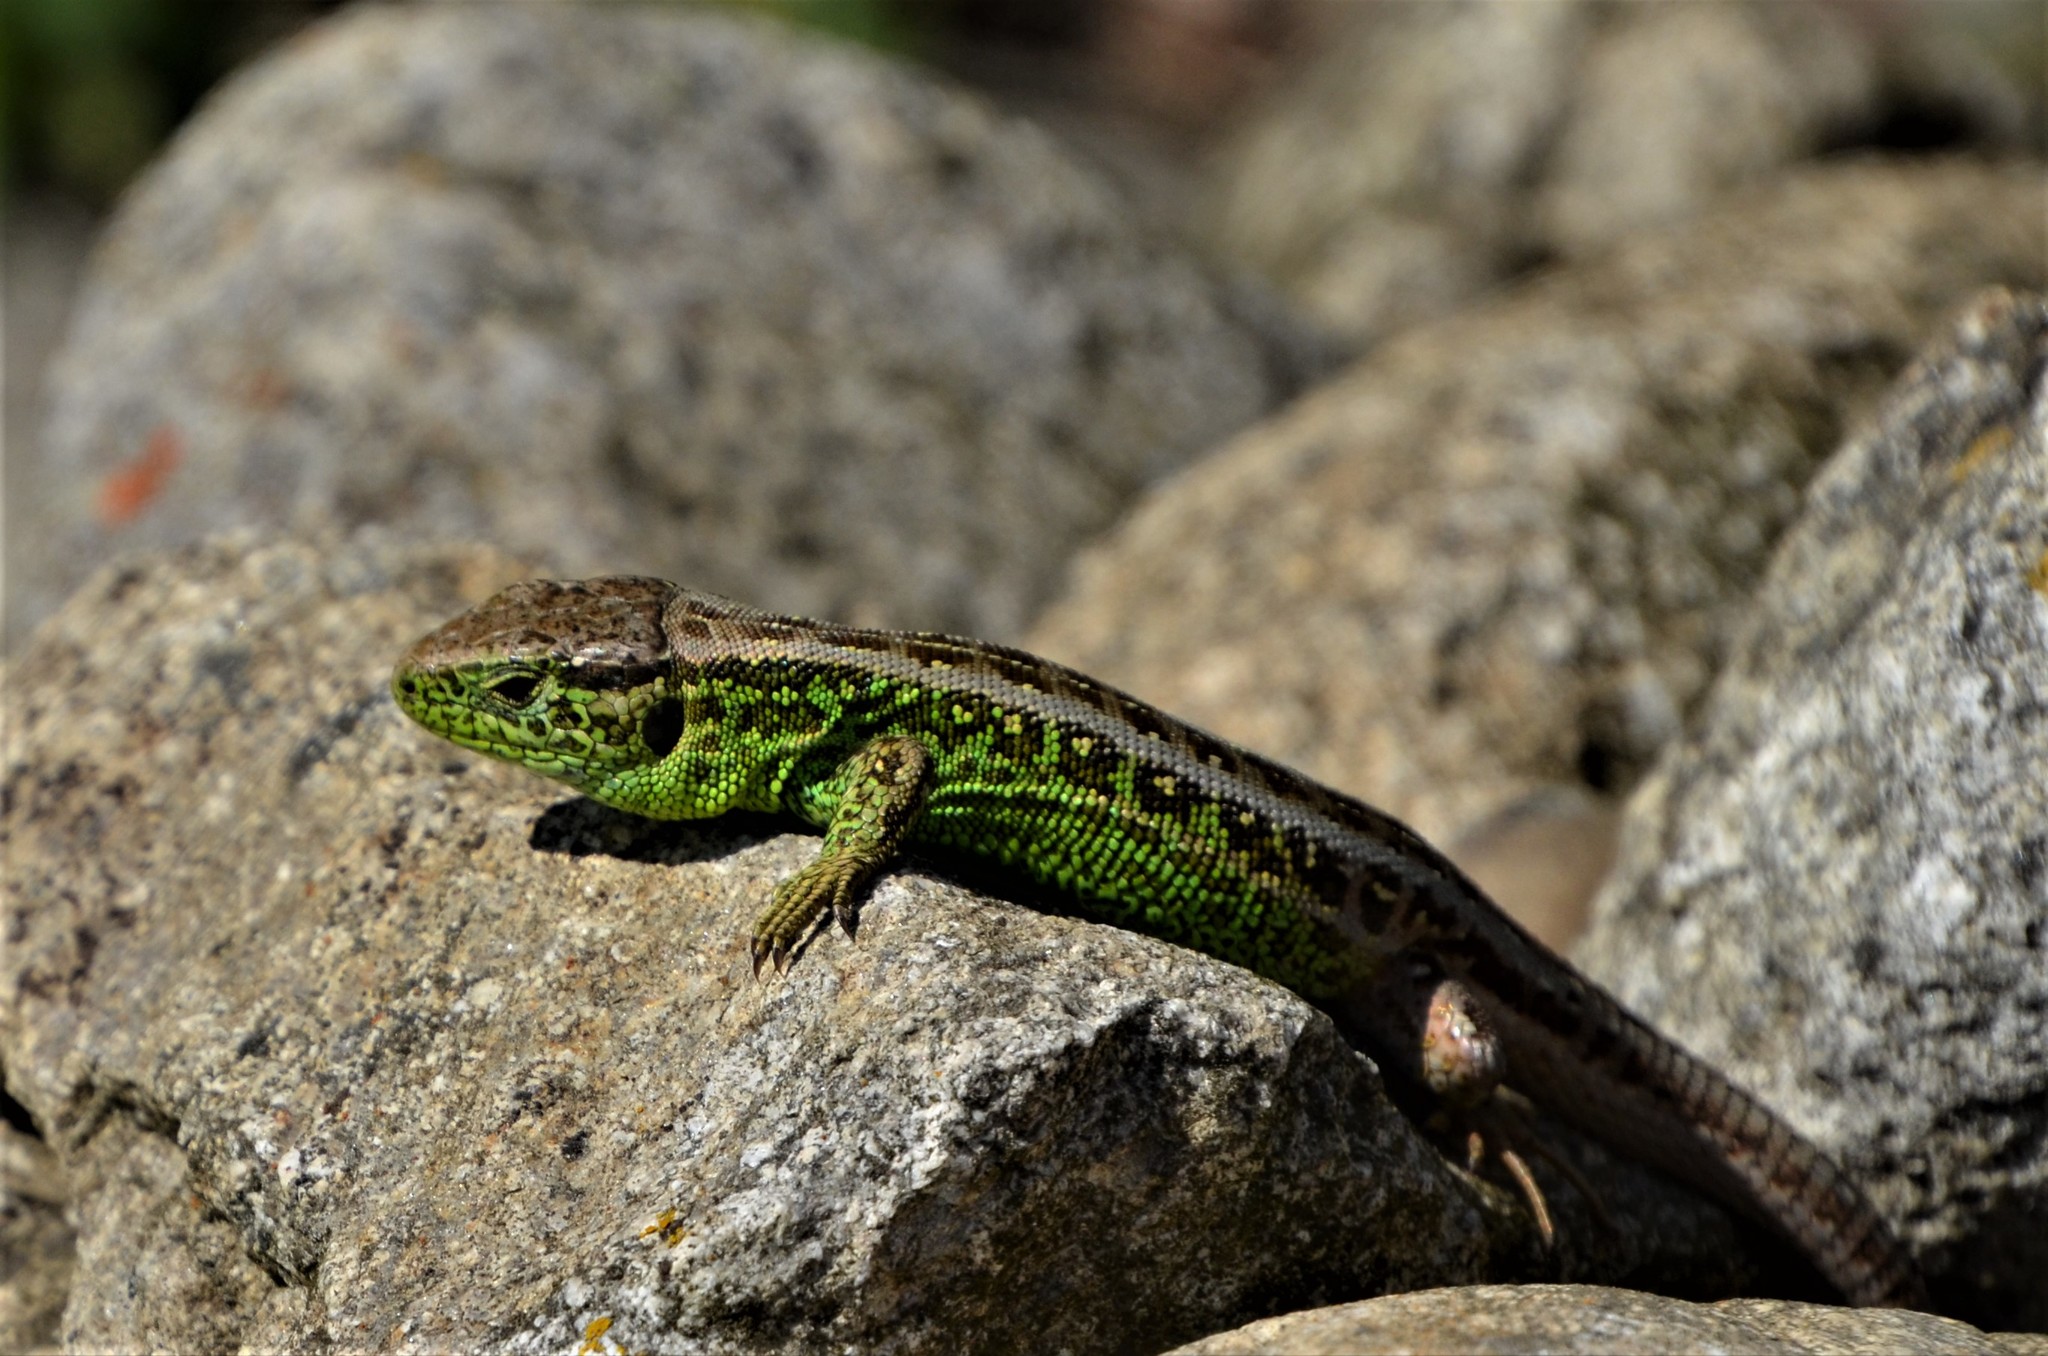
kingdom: Animalia
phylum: Chordata
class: Squamata
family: Lacertidae
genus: Lacerta
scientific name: Lacerta agilis
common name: Sand lizard
